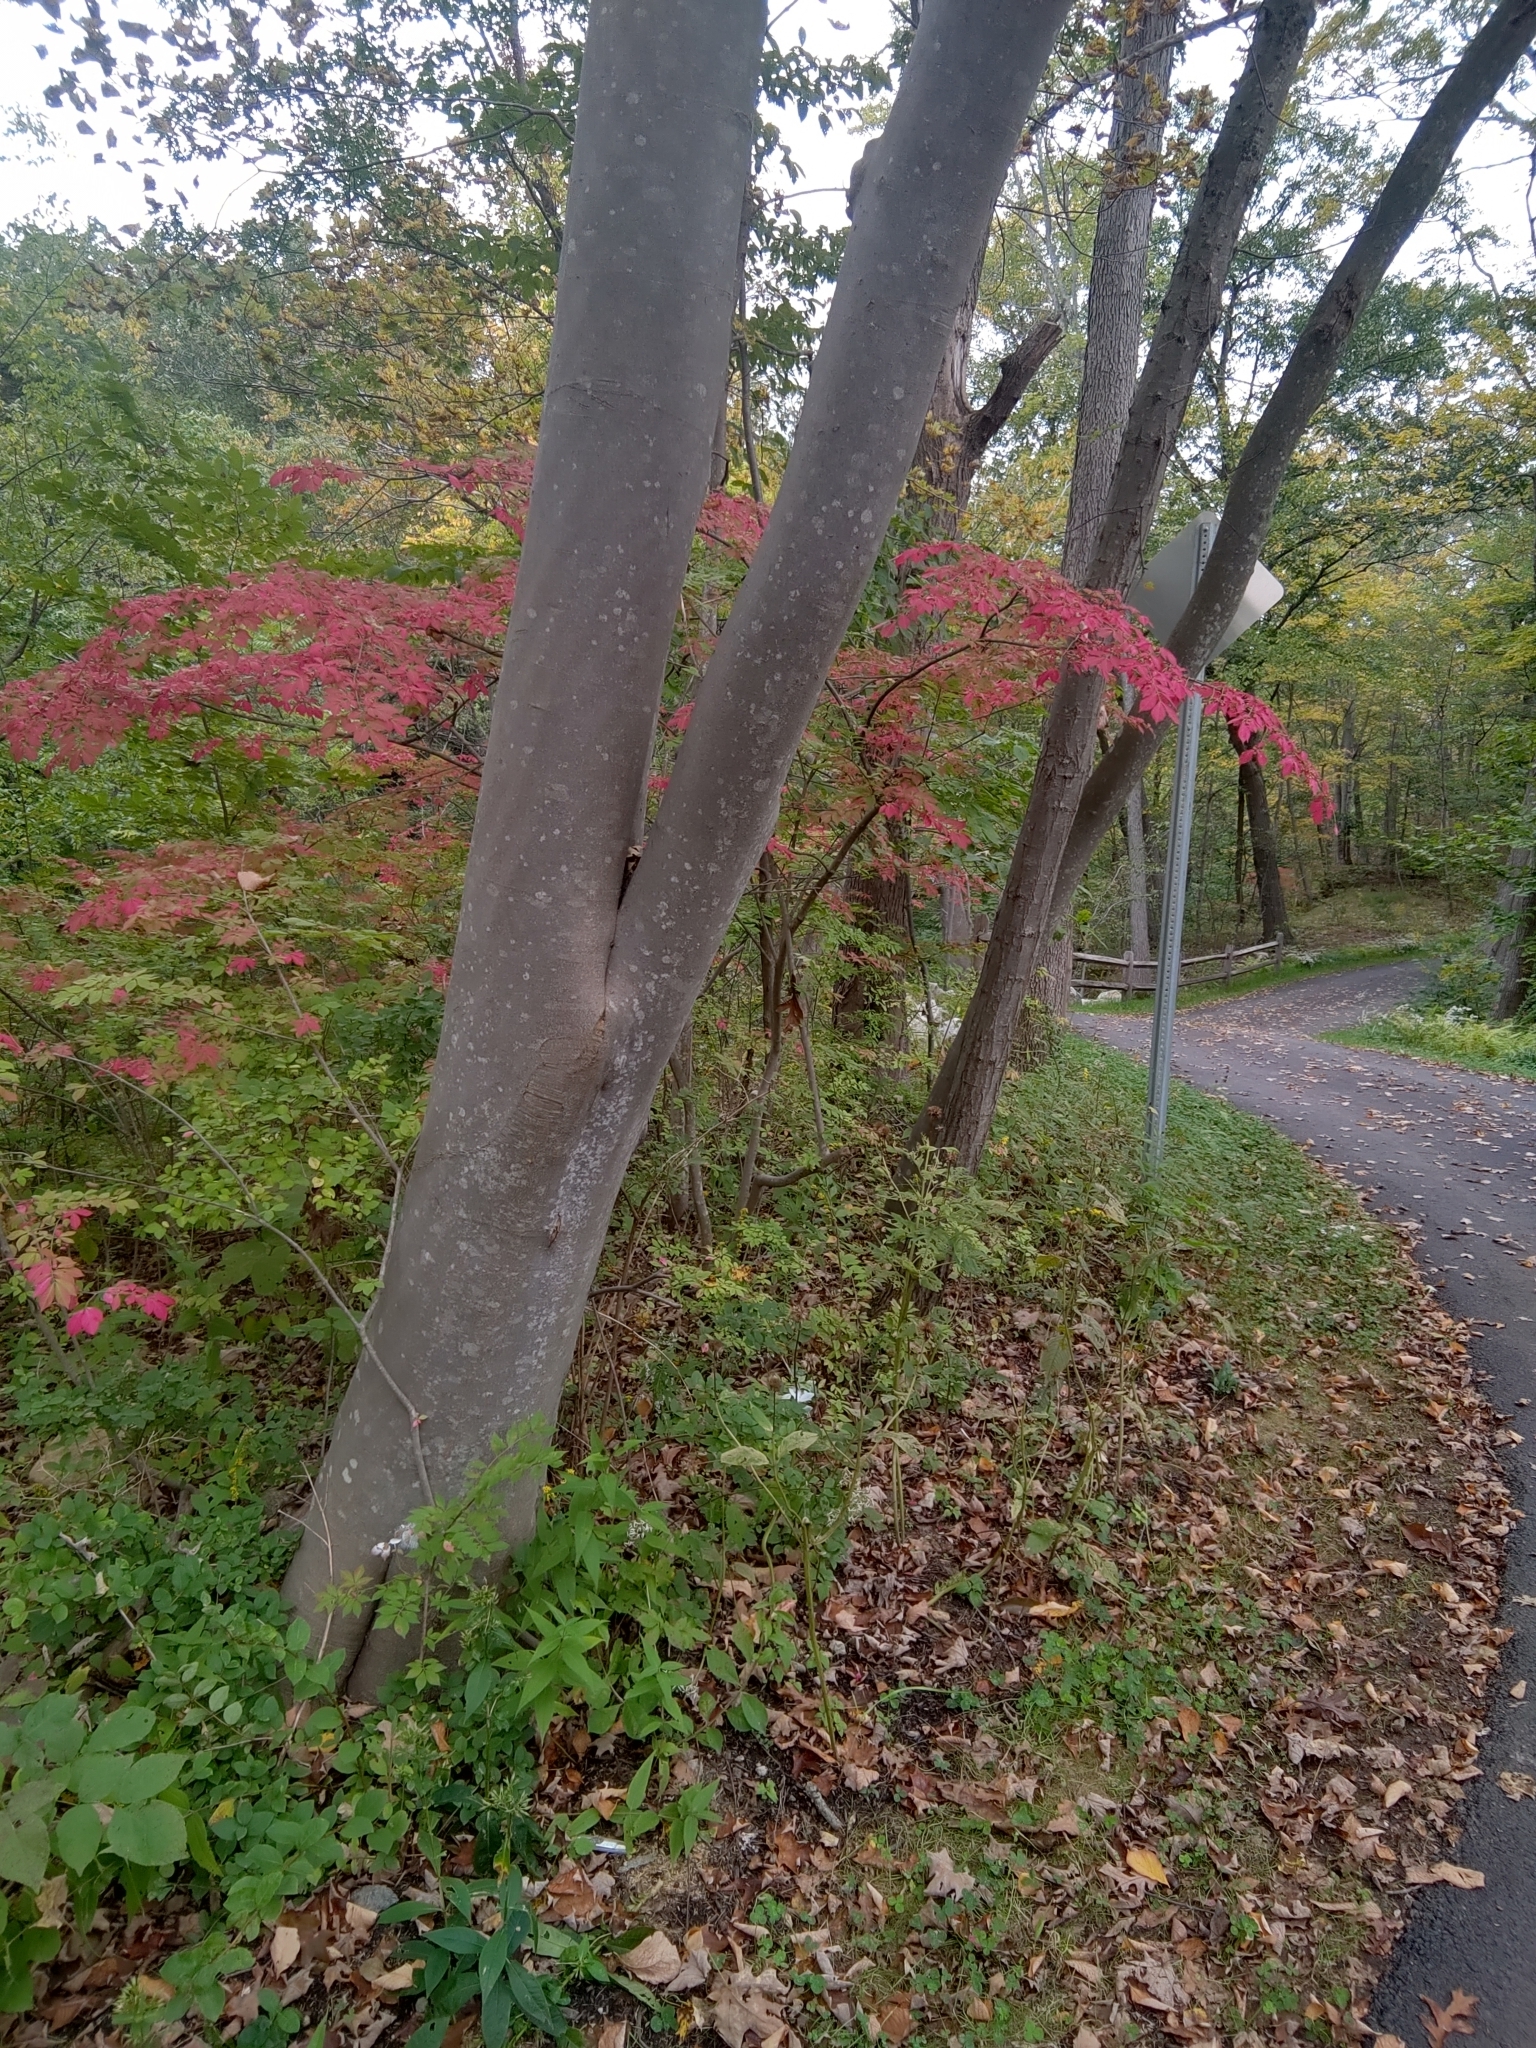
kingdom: Plantae
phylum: Tracheophyta
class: Magnoliopsida
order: Fabales
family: Fabaceae
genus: Cladrastis
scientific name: Cladrastis kentukea
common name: Kentucky yellow-wood
